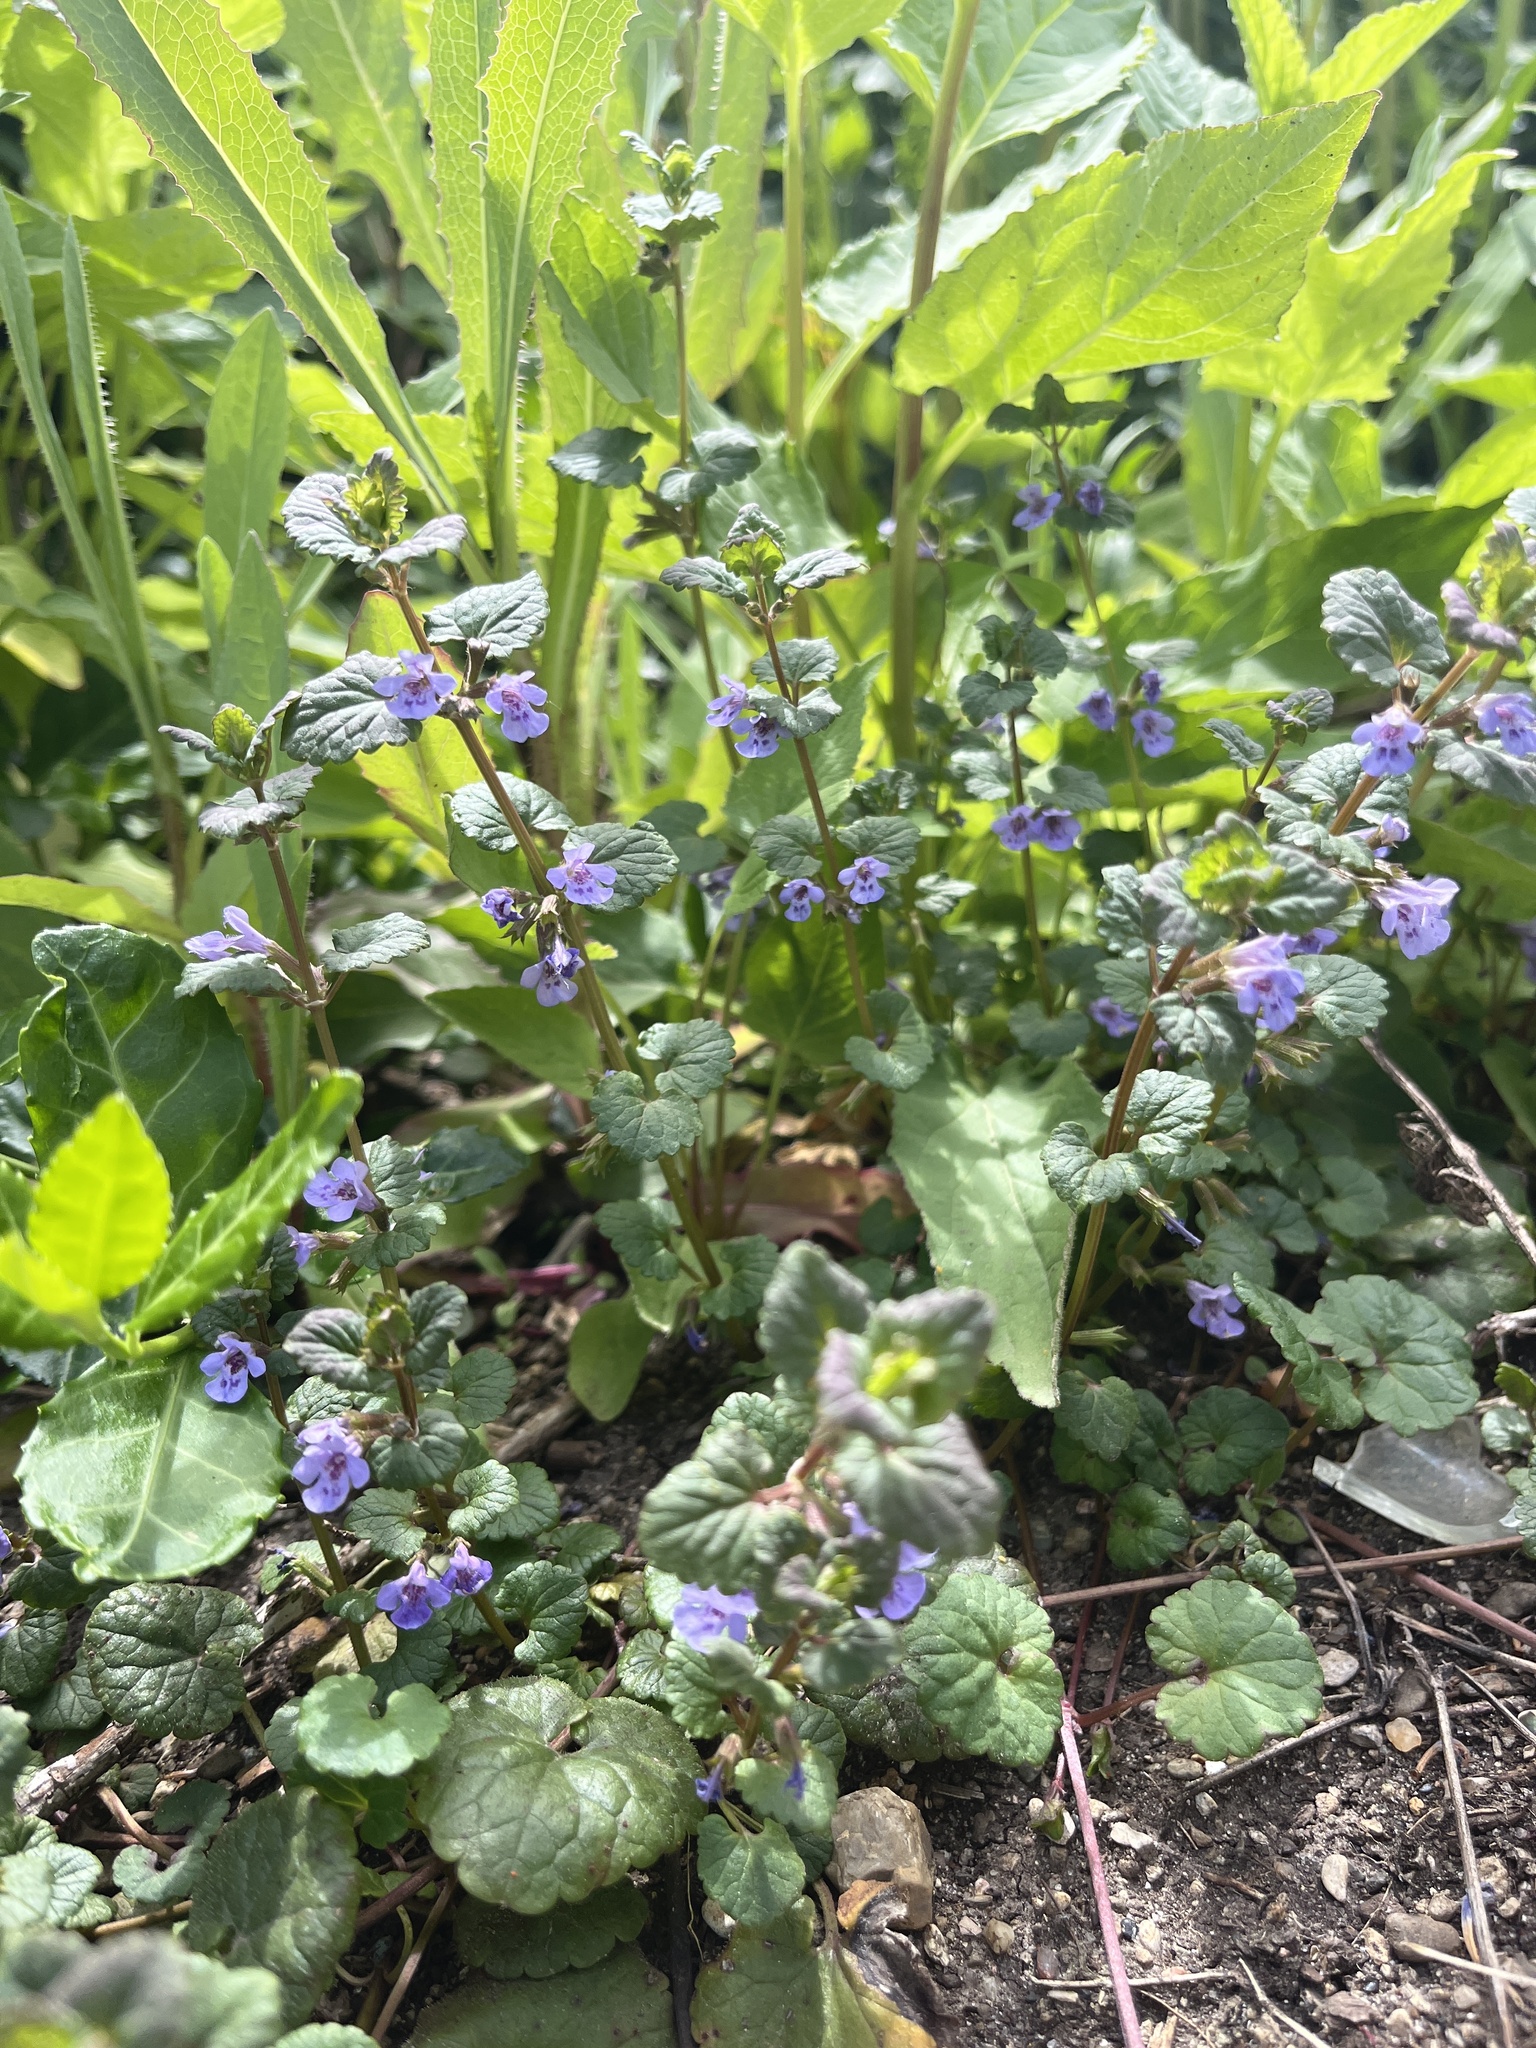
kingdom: Plantae
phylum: Tracheophyta
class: Magnoliopsida
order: Lamiales
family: Lamiaceae
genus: Glechoma
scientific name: Glechoma hederacea
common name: Ground ivy
